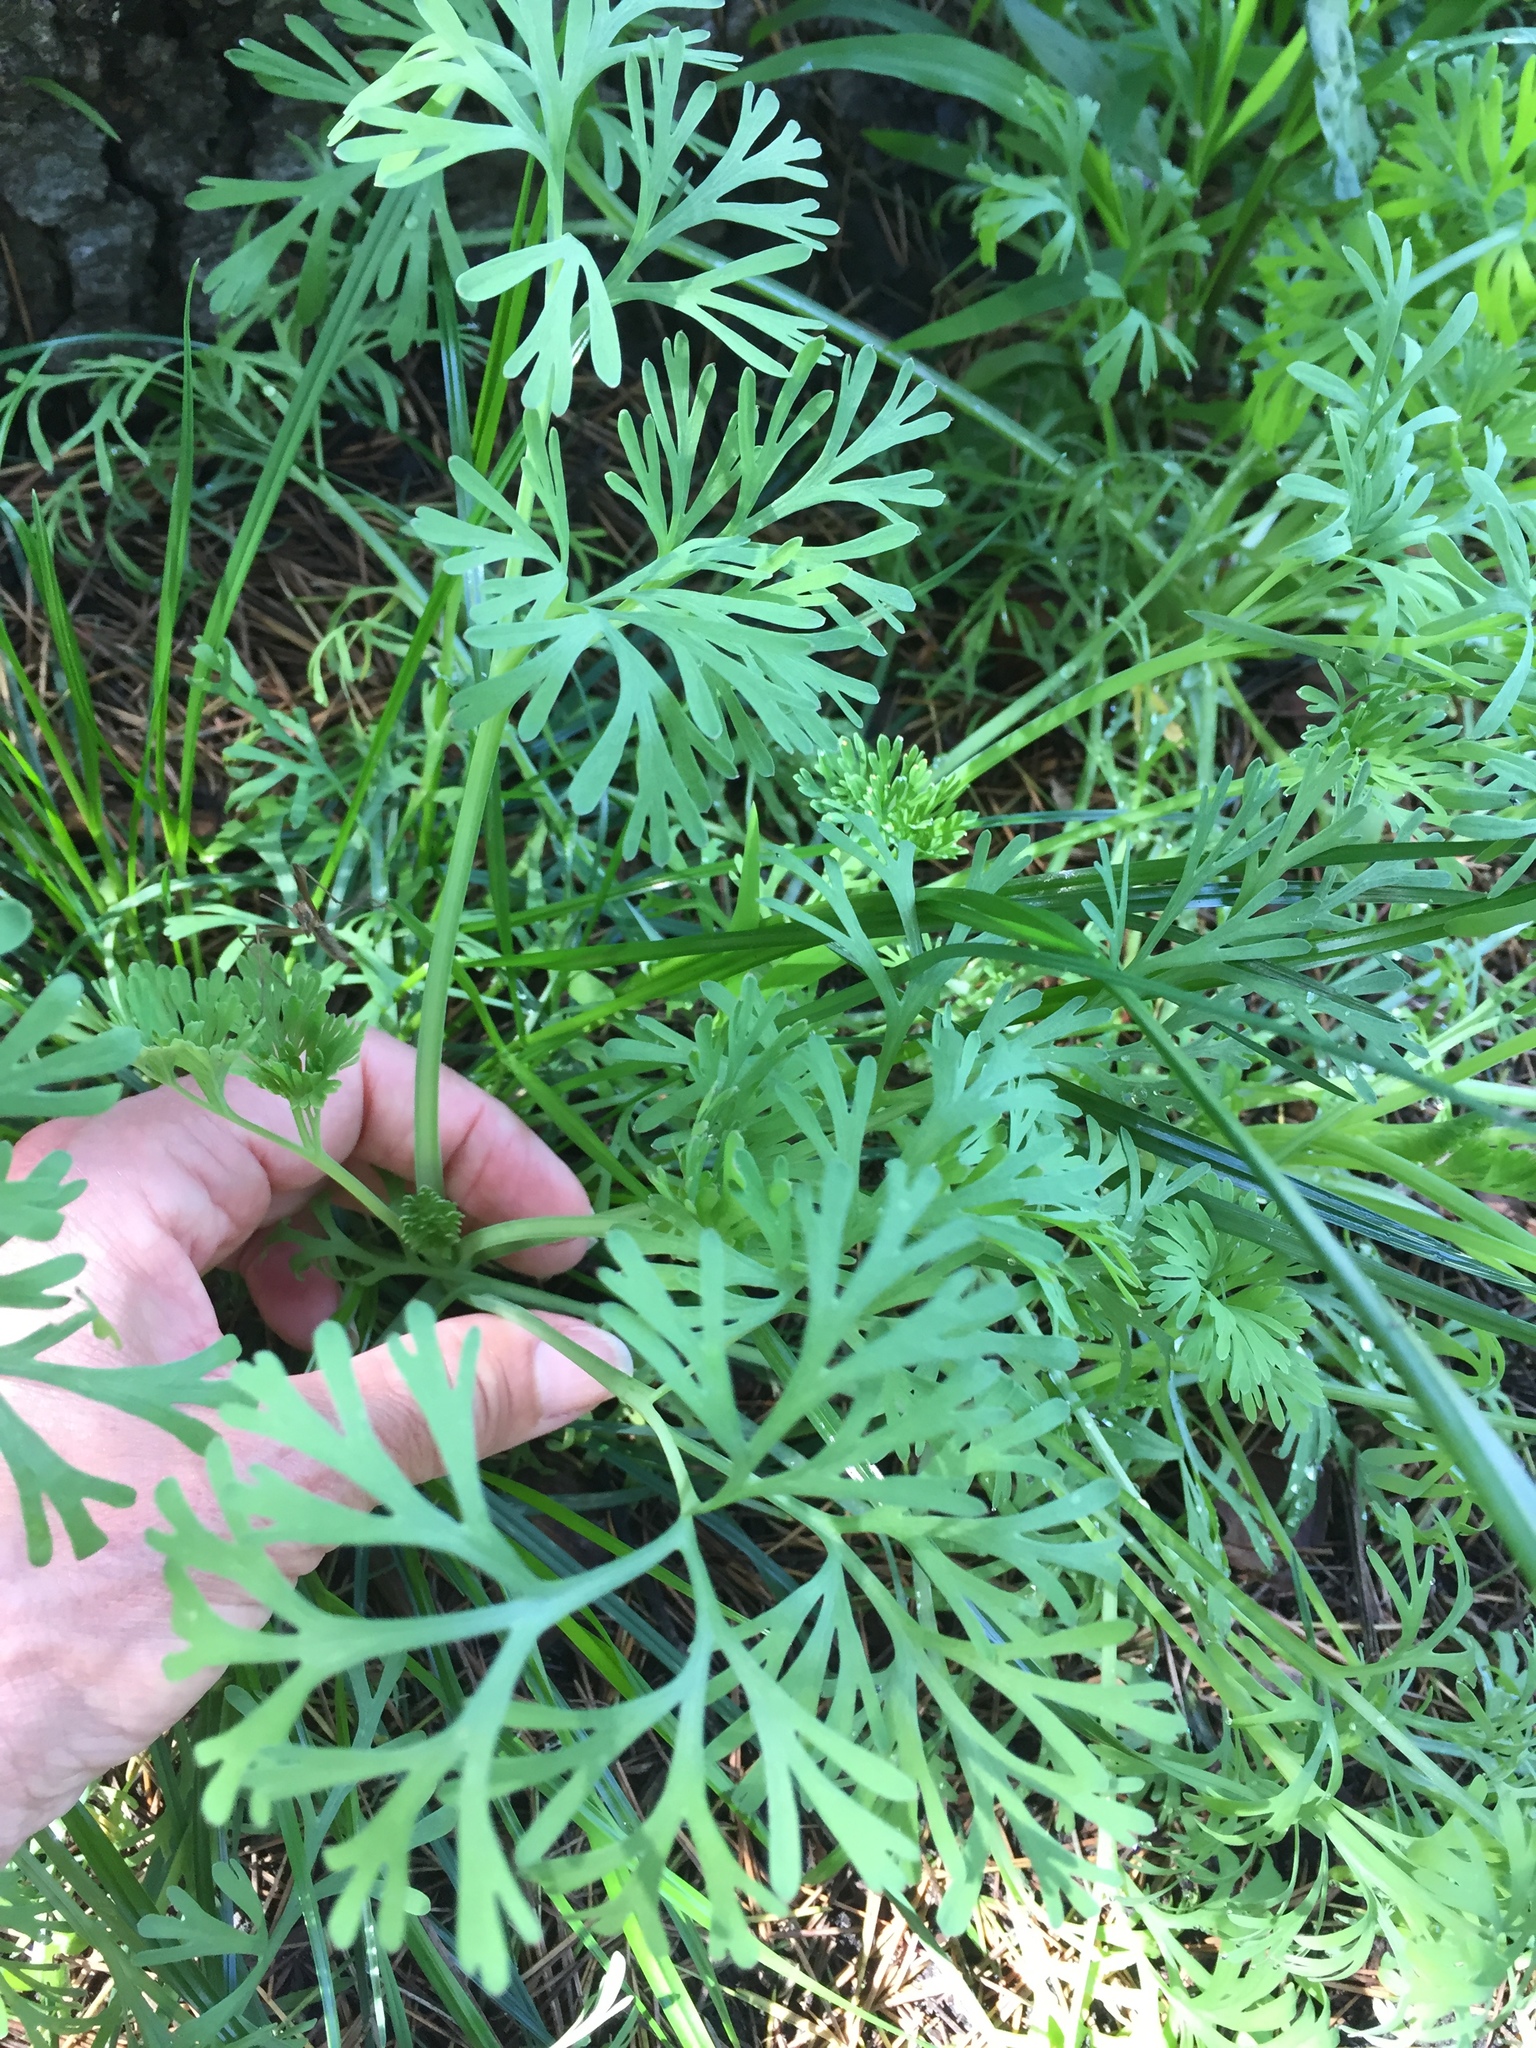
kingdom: Plantae
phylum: Tracheophyta
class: Magnoliopsida
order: Ranunculales
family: Papaveraceae
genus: Eschscholzia
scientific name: Eschscholzia californica
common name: California poppy
